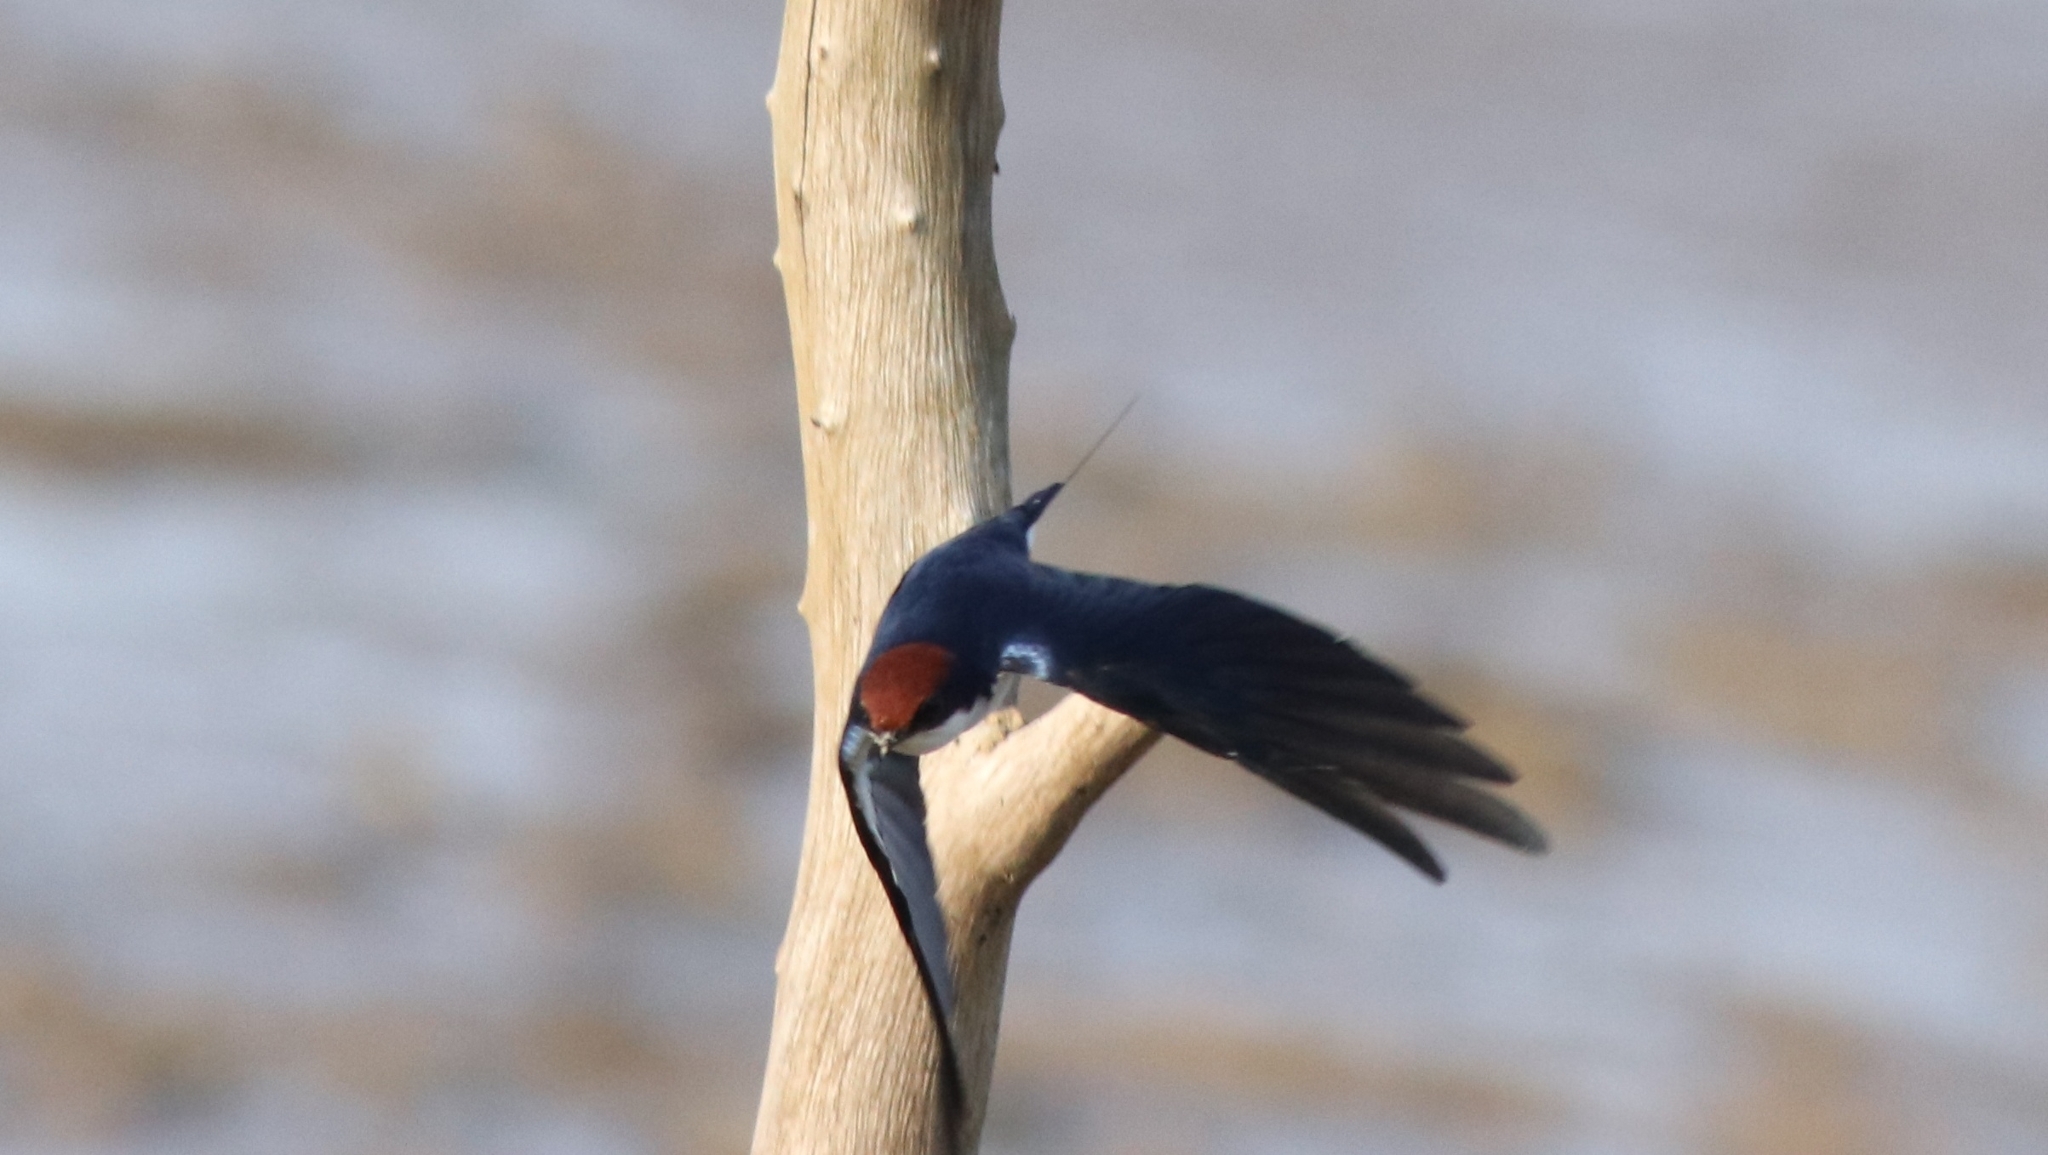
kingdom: Animalia
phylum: Chordata
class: Aves
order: Passeriformes
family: Hirundinidae
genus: Hirundo
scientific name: Hirundo smithii
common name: Wire-tailed swallow
